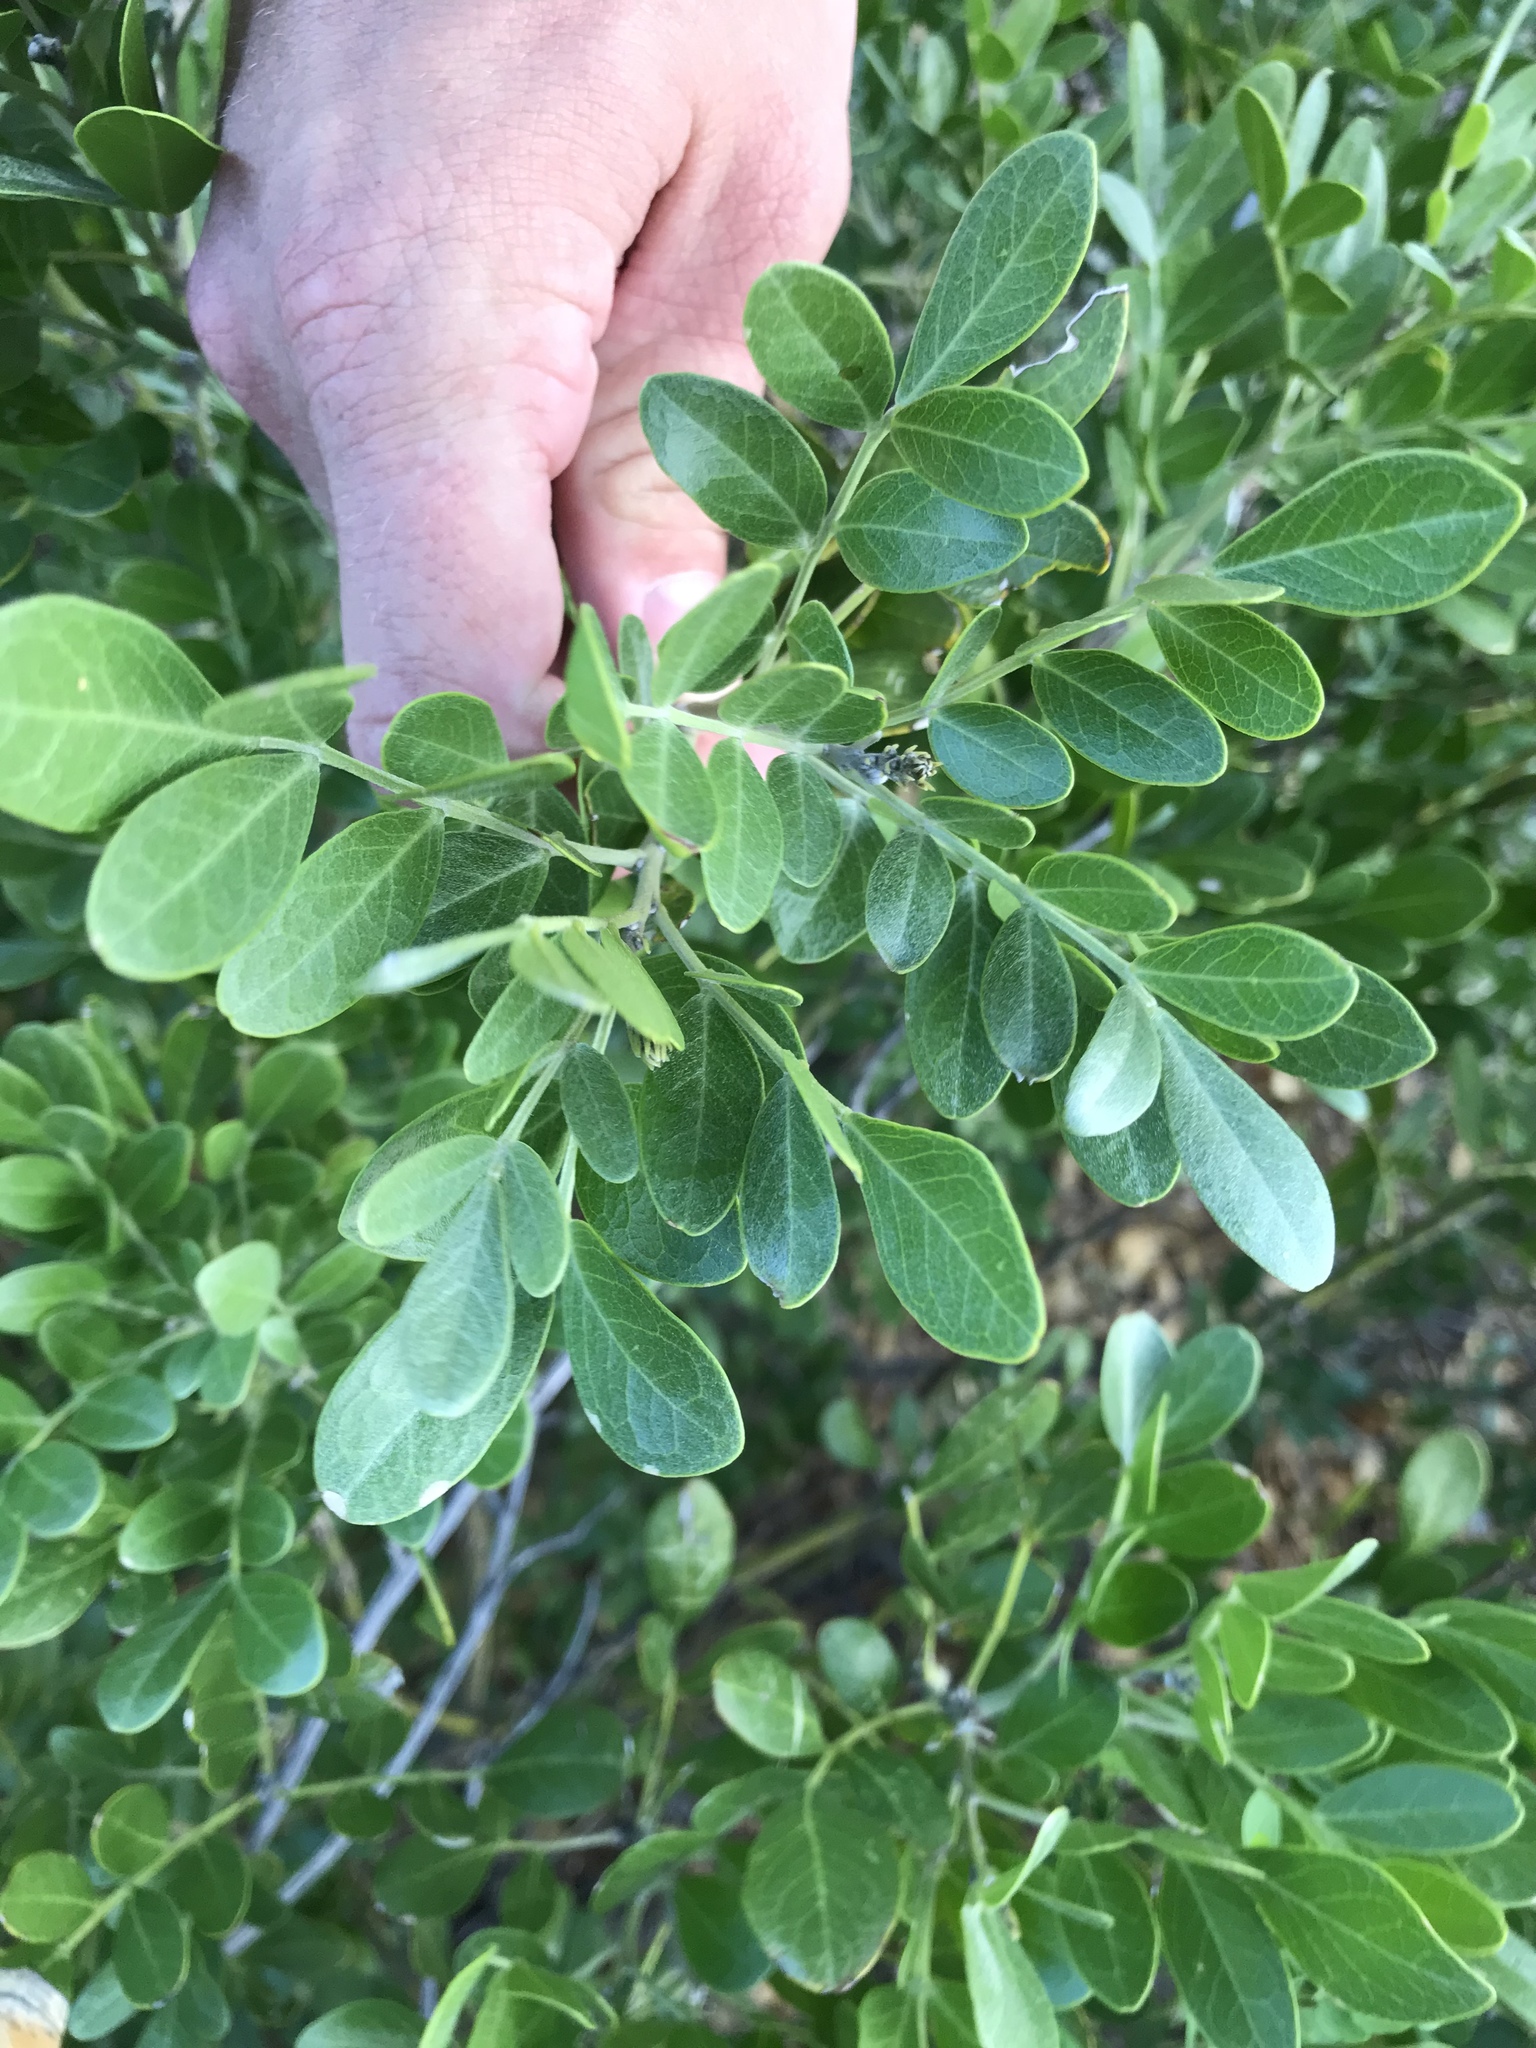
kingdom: Plantae
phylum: Tracheophyta
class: Magnoliopsida
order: Fabales
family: Fabaceae
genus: Dermatophyllum
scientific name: Dermatophyllum secundiflorum
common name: Texas-mountain-laurel
